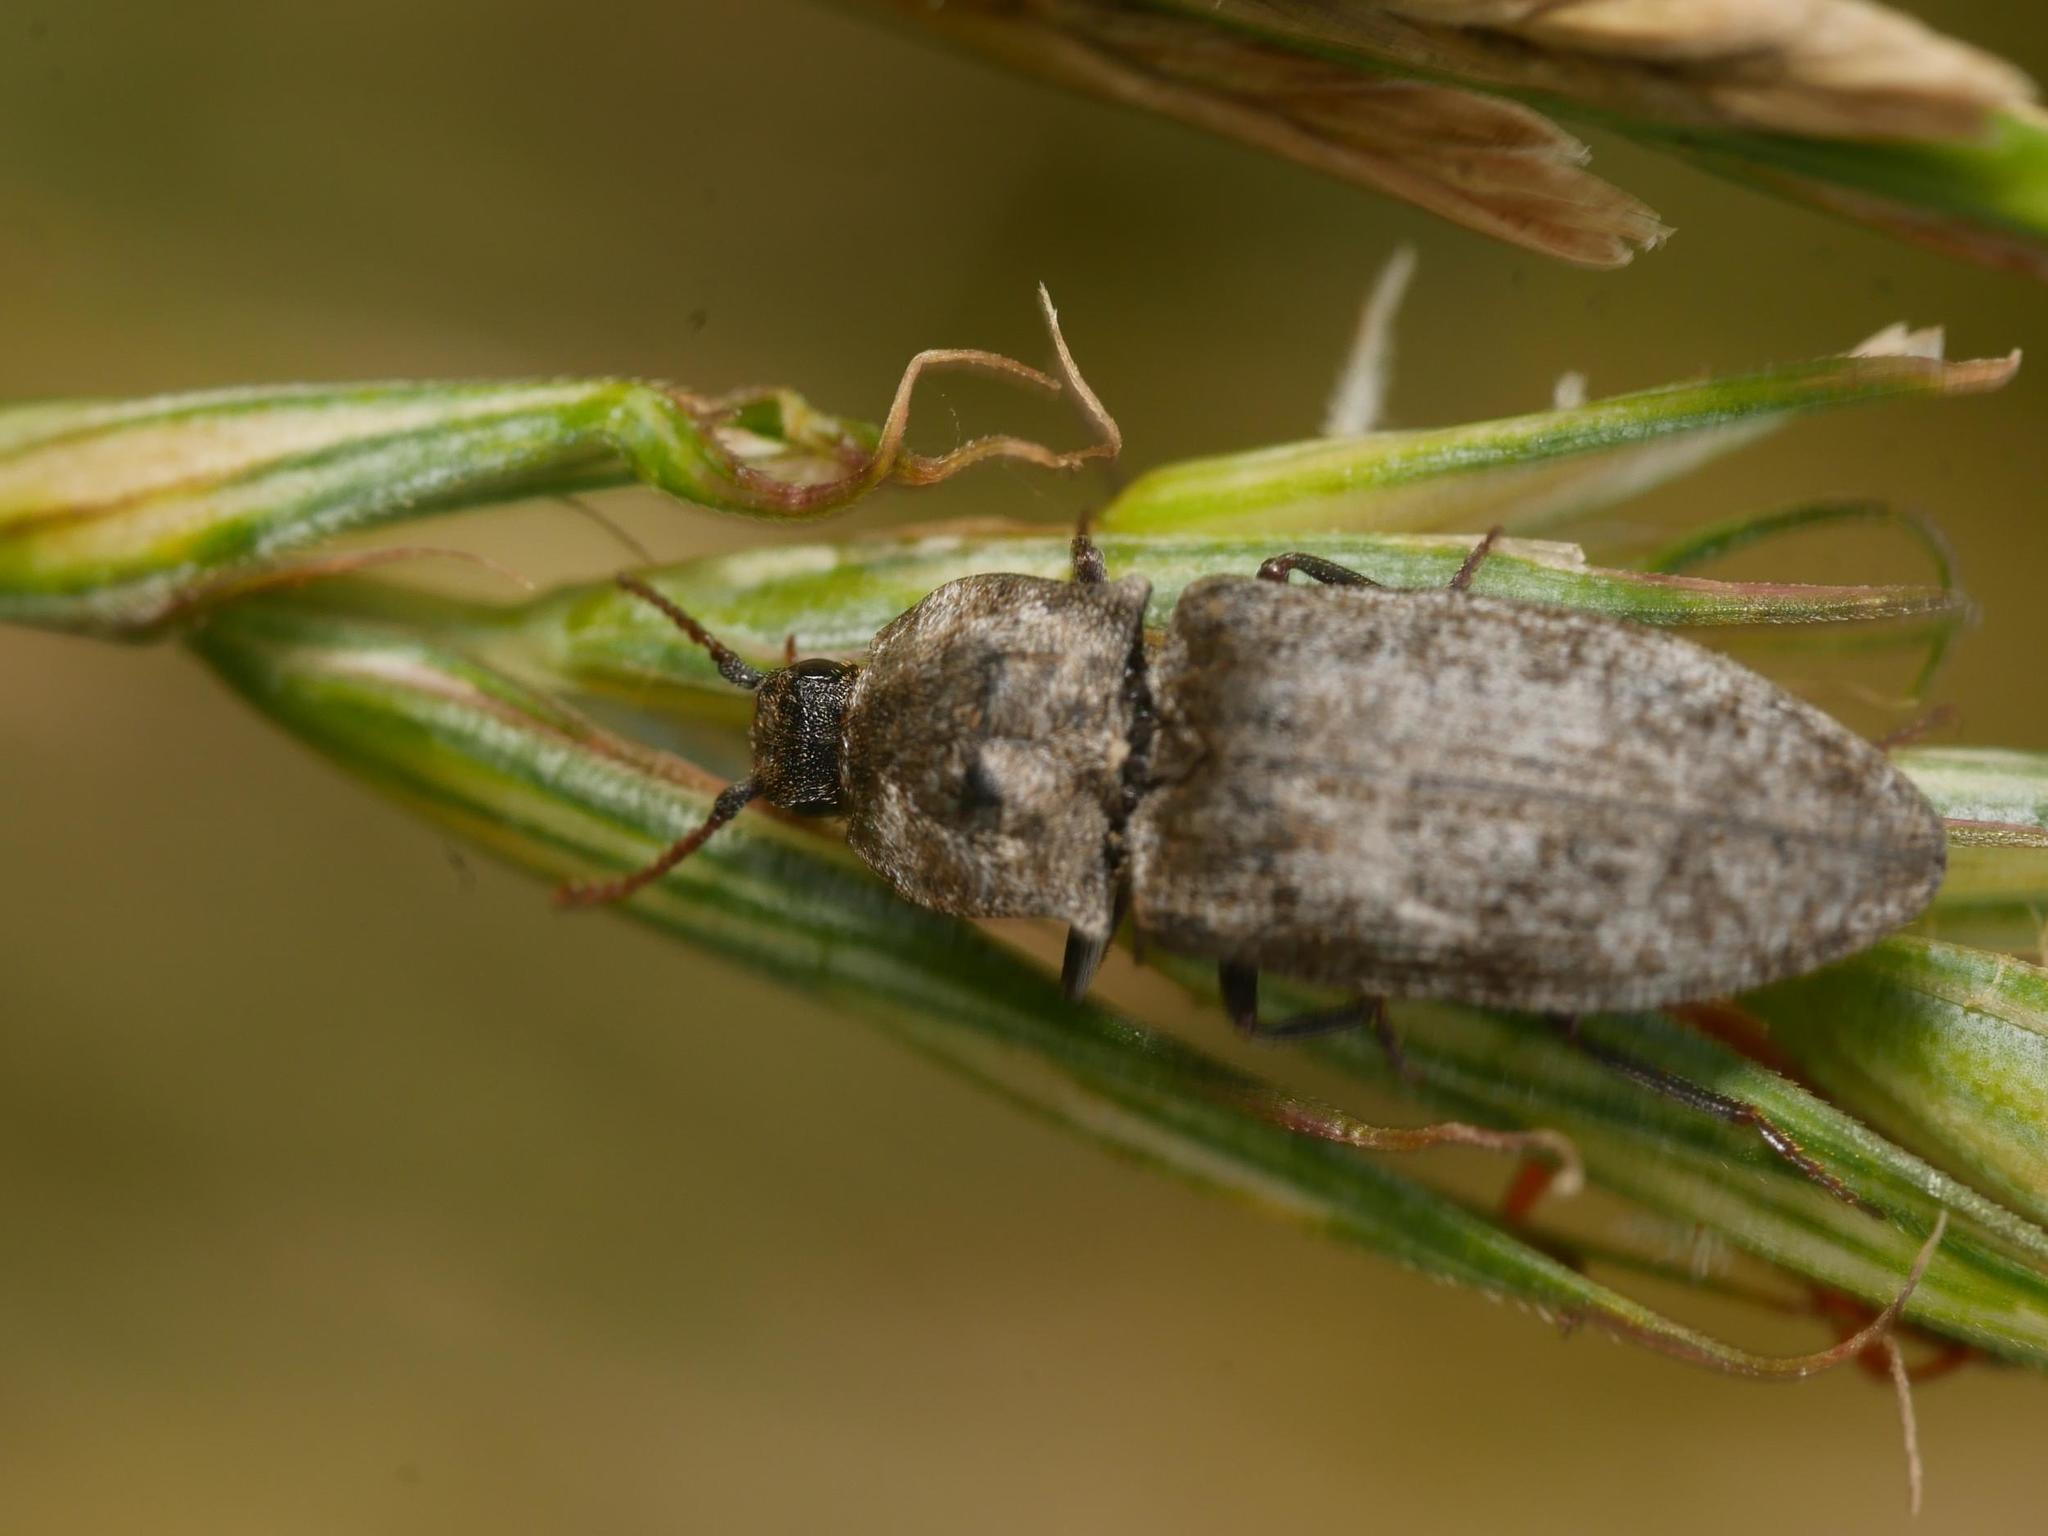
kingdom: Animalia
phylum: Arthropoda
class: Insecta
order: Coleoptera
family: Elateridae
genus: Agrypnus
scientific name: Agrypnus murinus
